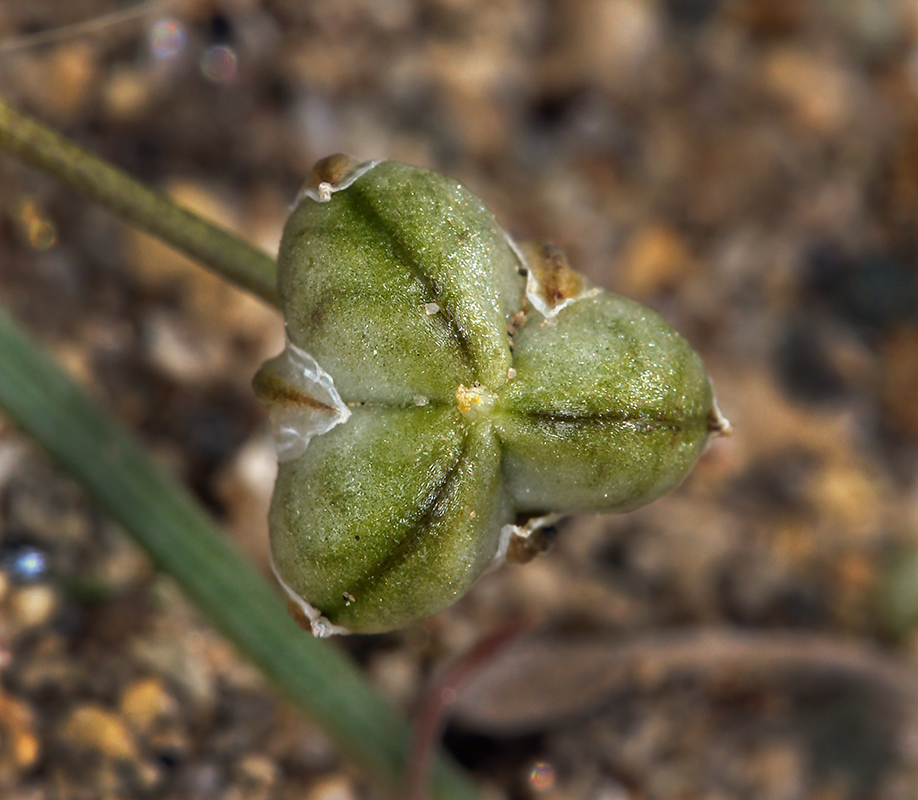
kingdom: Plantae
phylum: Tracheophyta
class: Liliopsida
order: Asparagales
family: Asparagaceae
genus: Muilla
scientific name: Muilla coronata
